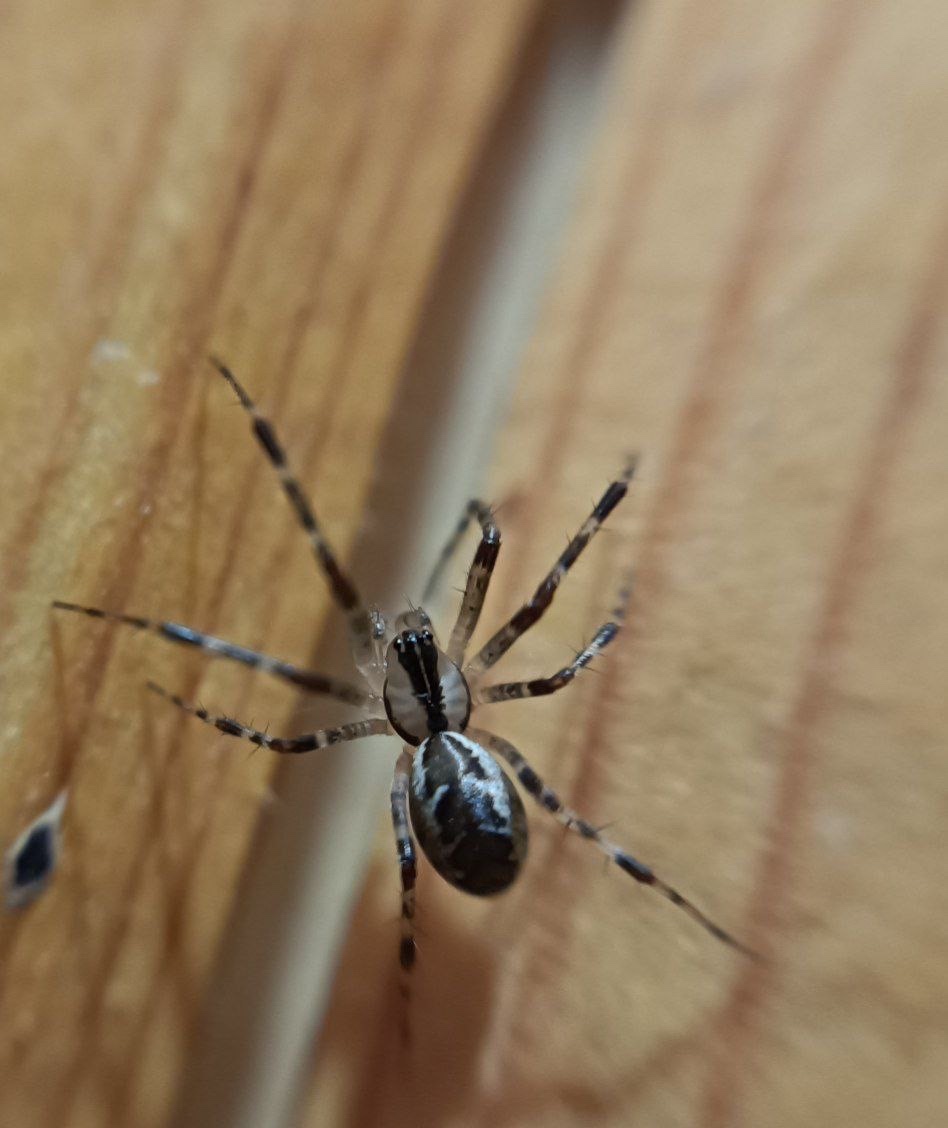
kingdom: Animalia
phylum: Arthropoda
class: Arachnida
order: Araneae
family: Linyphiidae
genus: Pityohyphantes
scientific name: Pityohyphantes phrygianus
